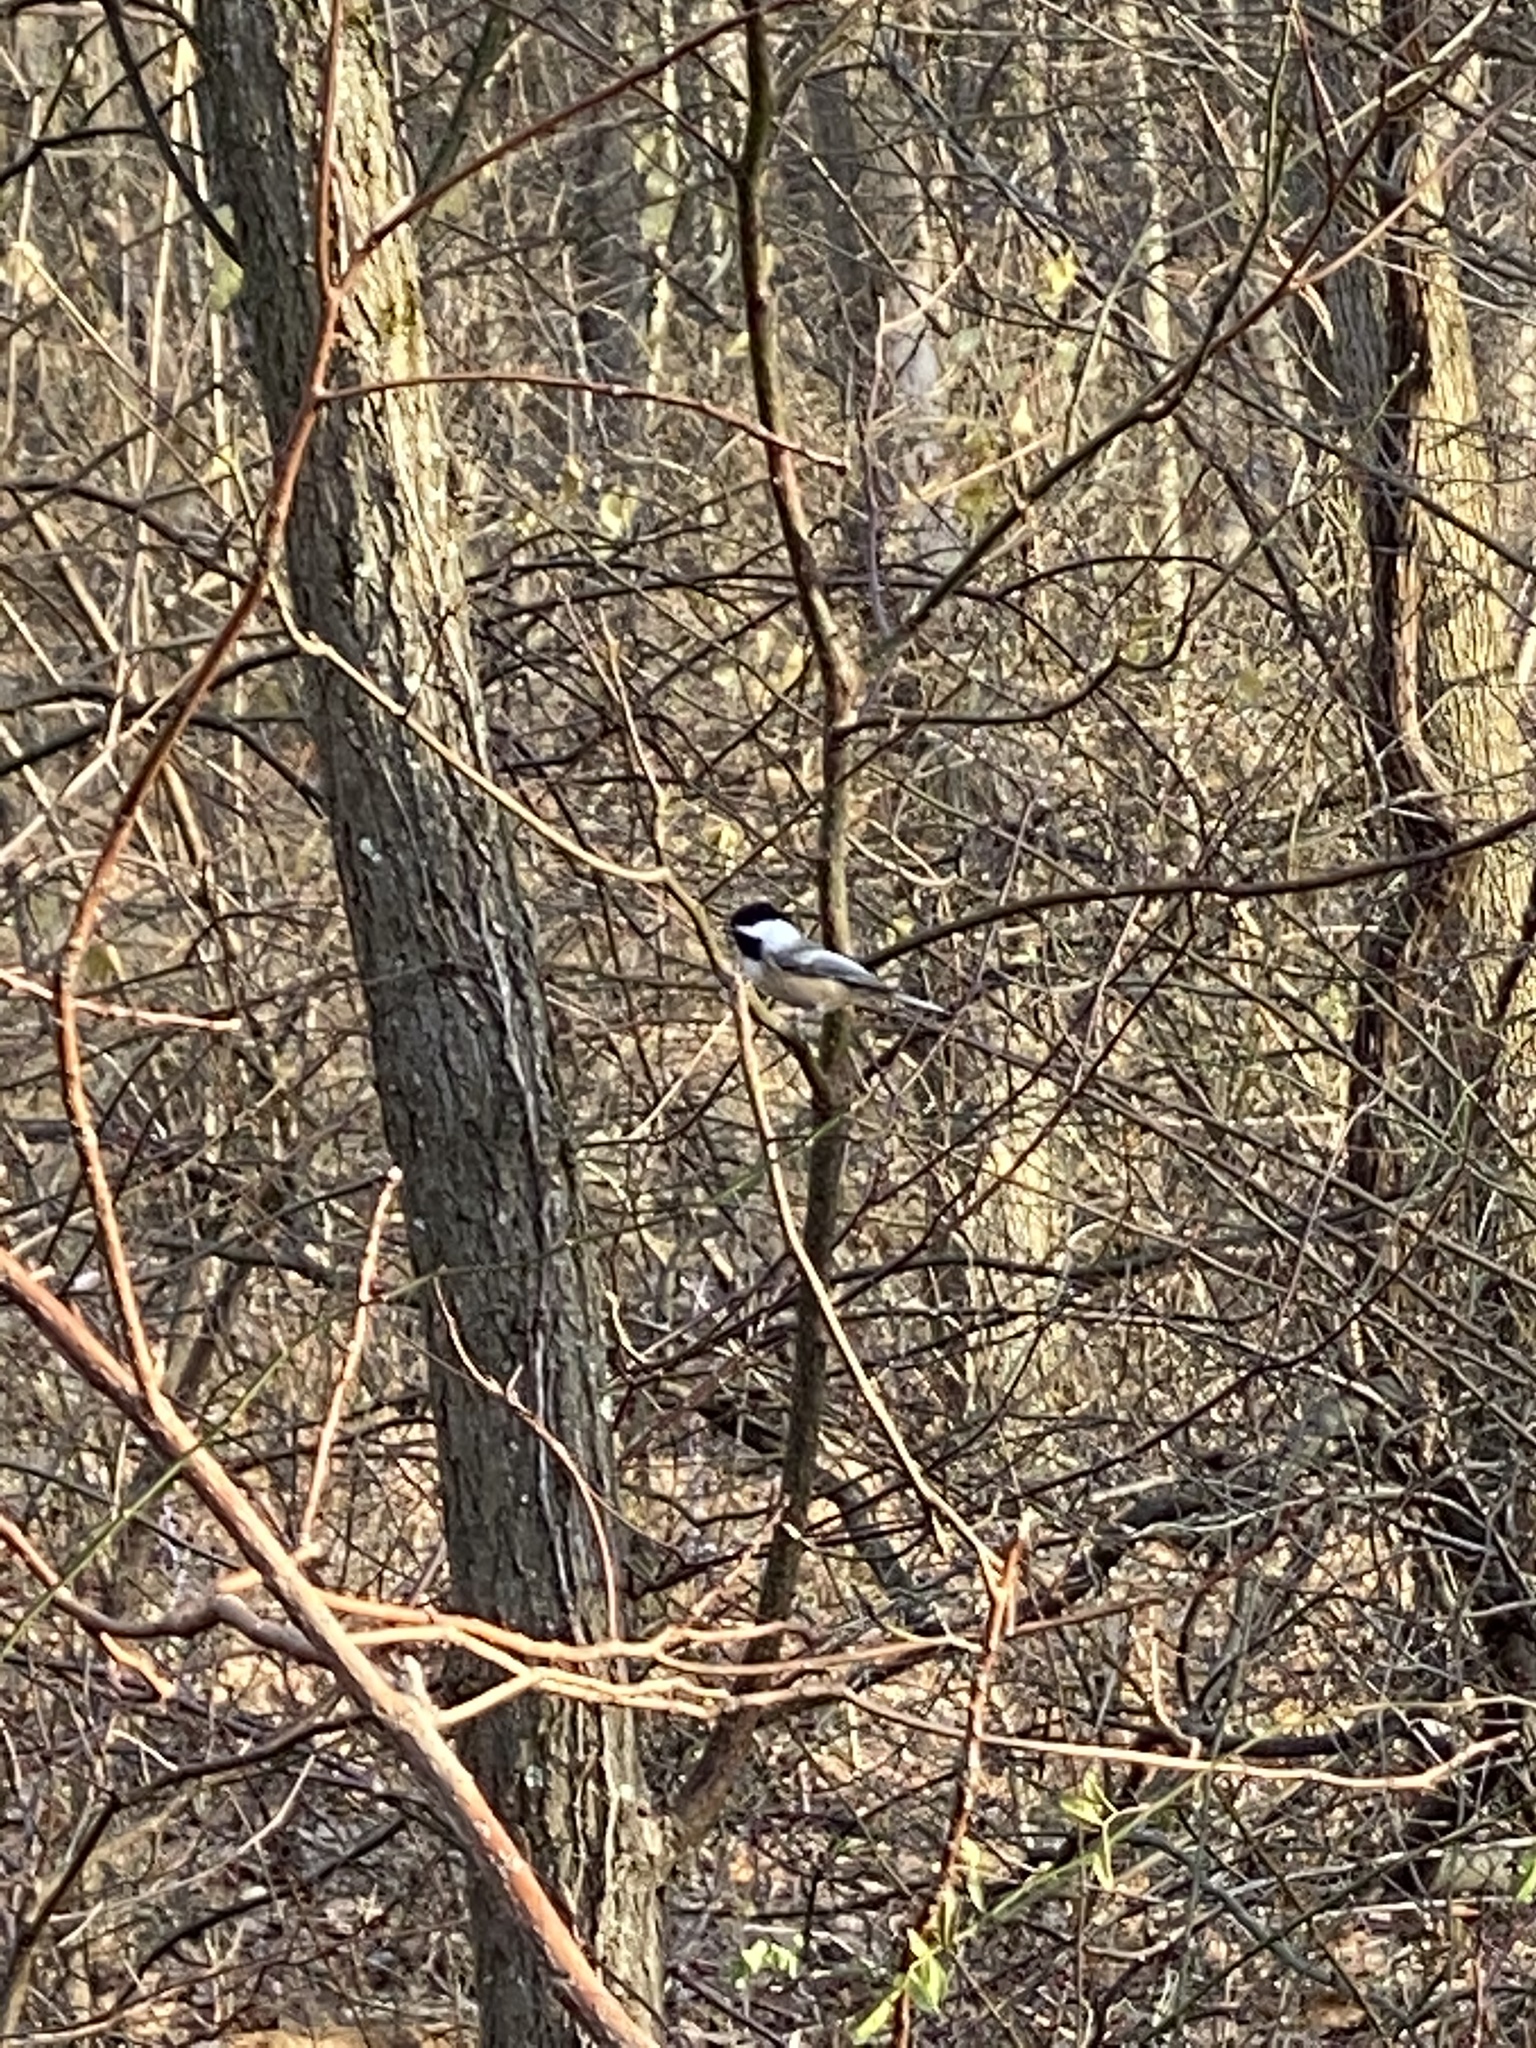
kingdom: Animalia
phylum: Chordata
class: Aves
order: Passeriformes
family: Paridae
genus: Poecile
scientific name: Poecile atricapillus
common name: Black-capped chickadee
